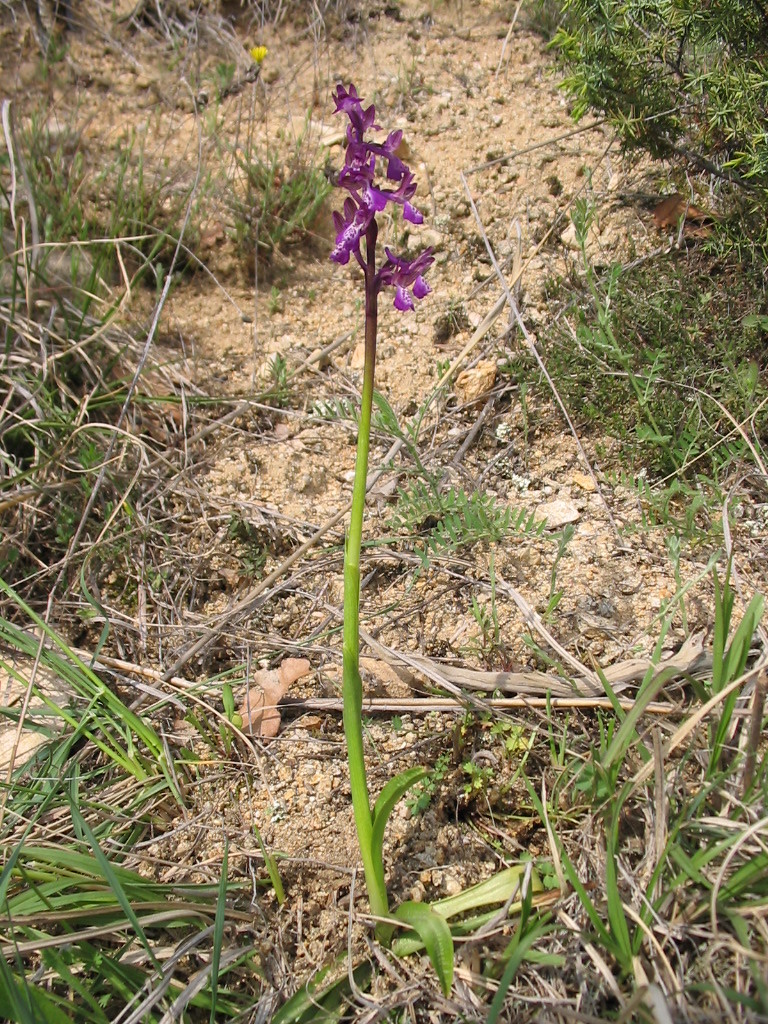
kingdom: Plantae
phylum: Tracheophyta
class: Liliopsida
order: Asparagales
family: Orchidaceae
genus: Anacamptis
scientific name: Anacamptis morio
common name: Green-winged orchid
